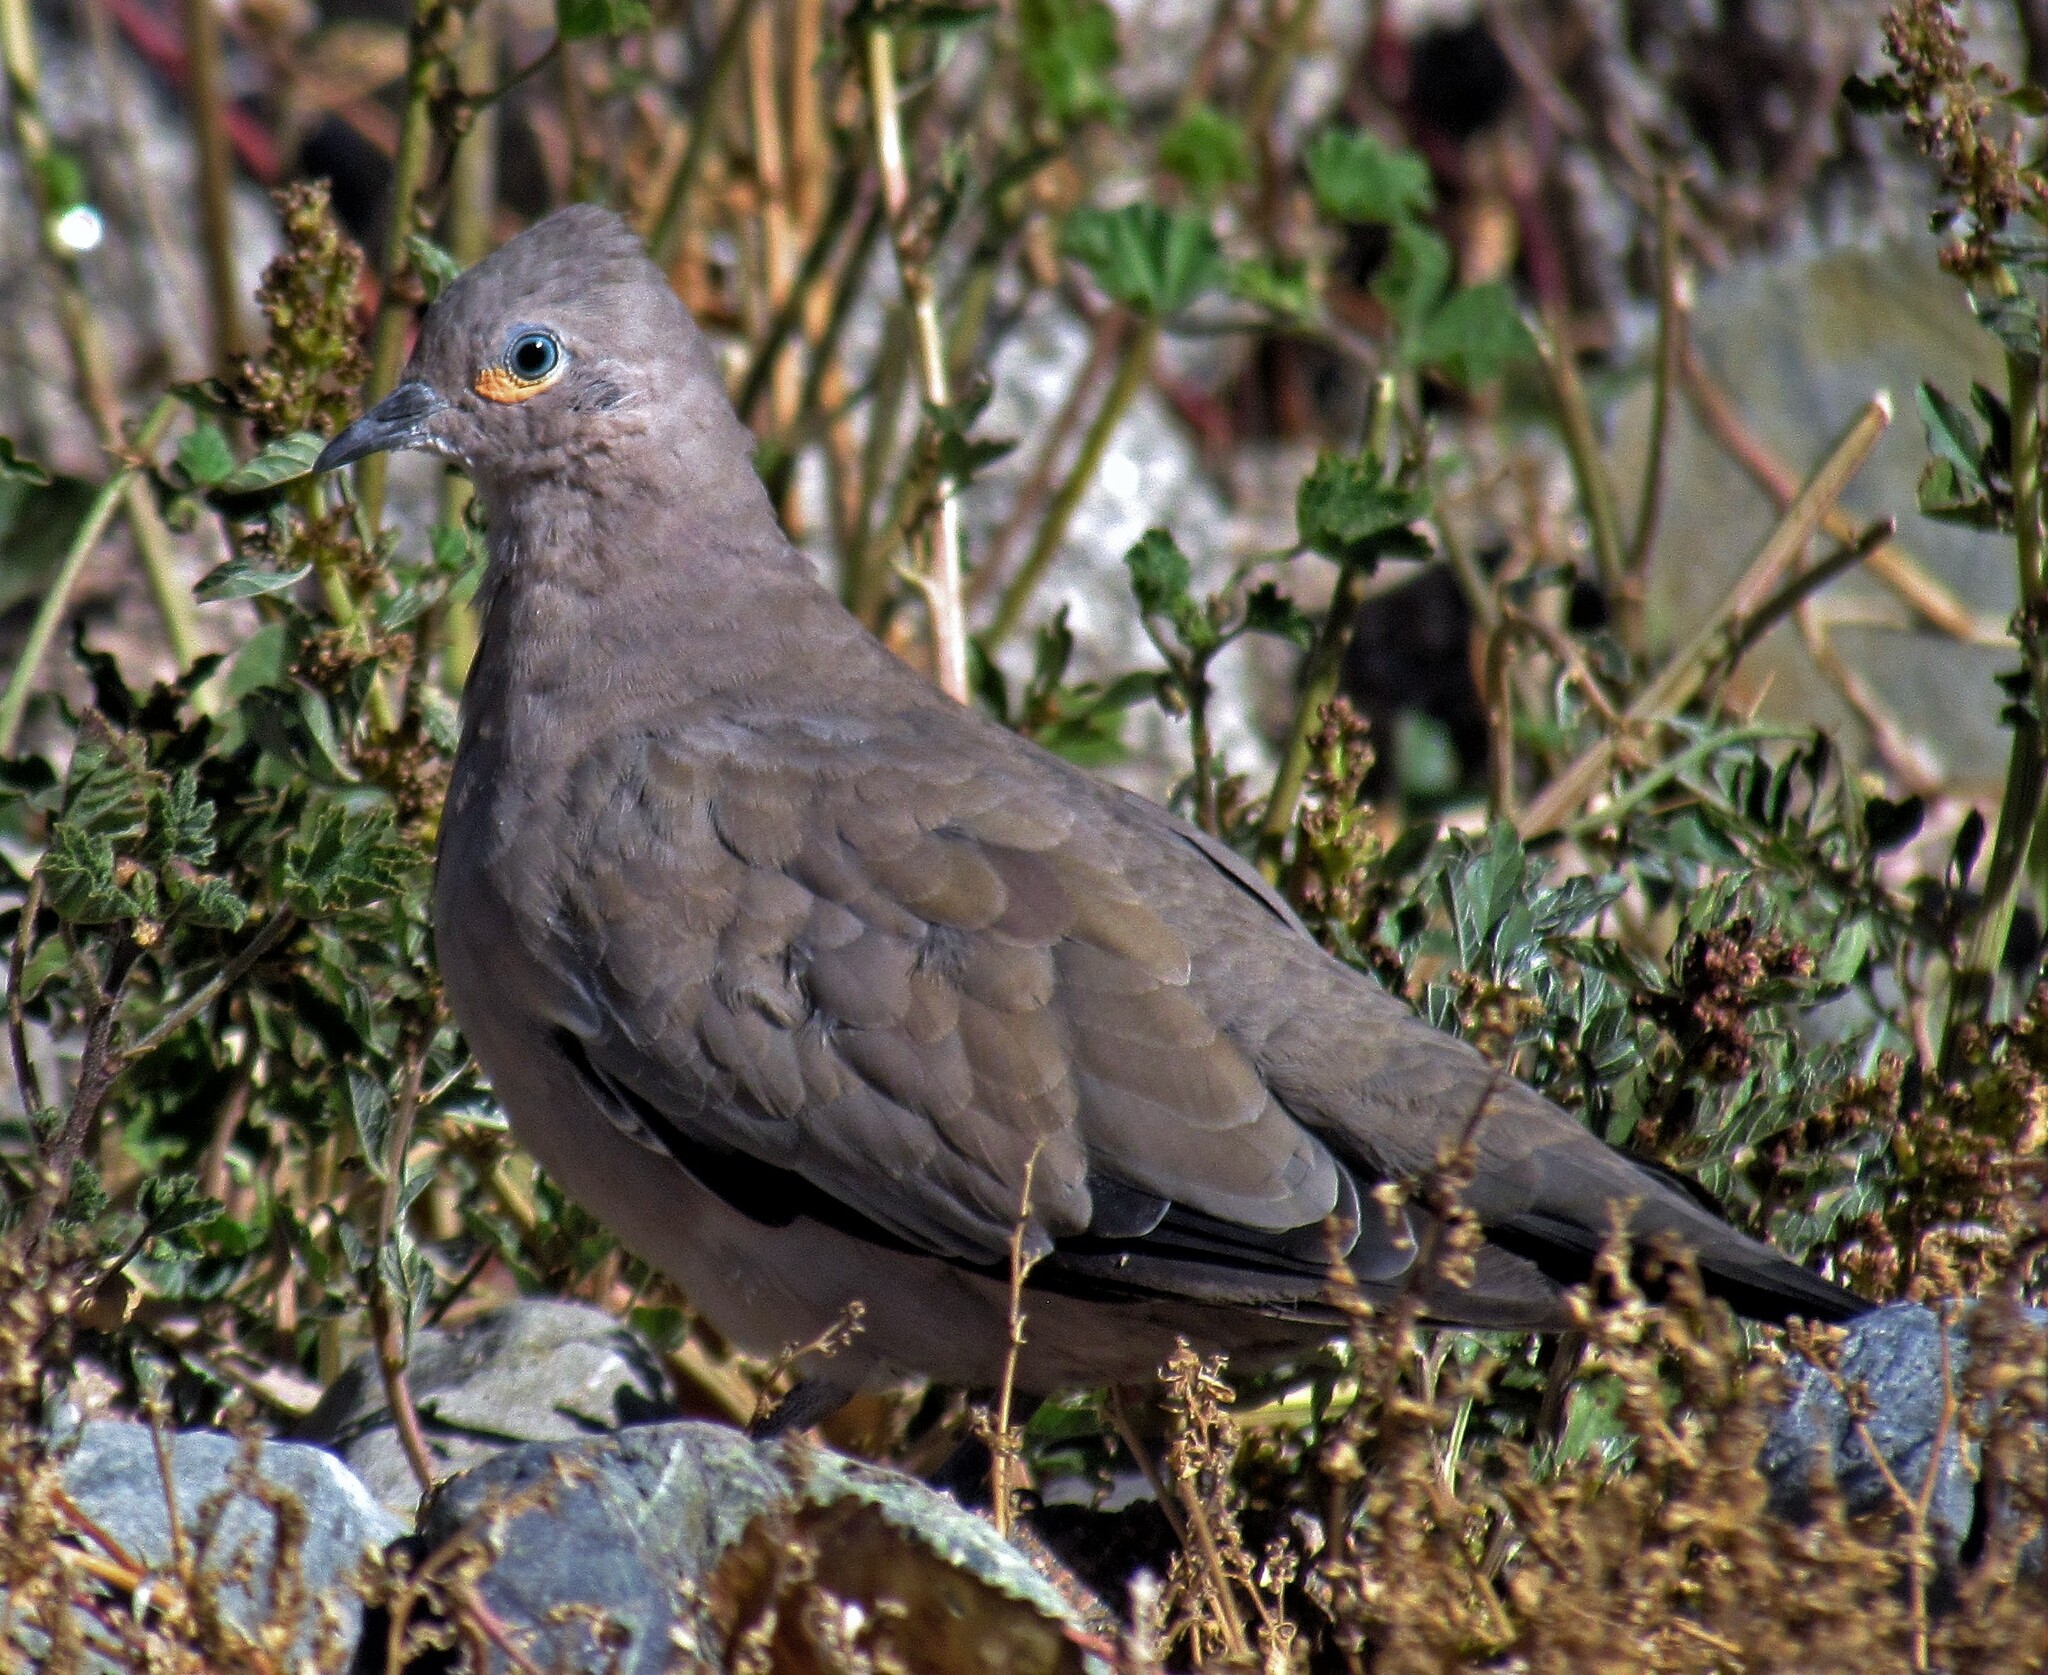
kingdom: Animalia
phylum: Chordata
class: Aves
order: Columbiformes
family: Columbidae
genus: Metriopelia
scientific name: Metriopelia melanoptera
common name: Black-winged ground dove
